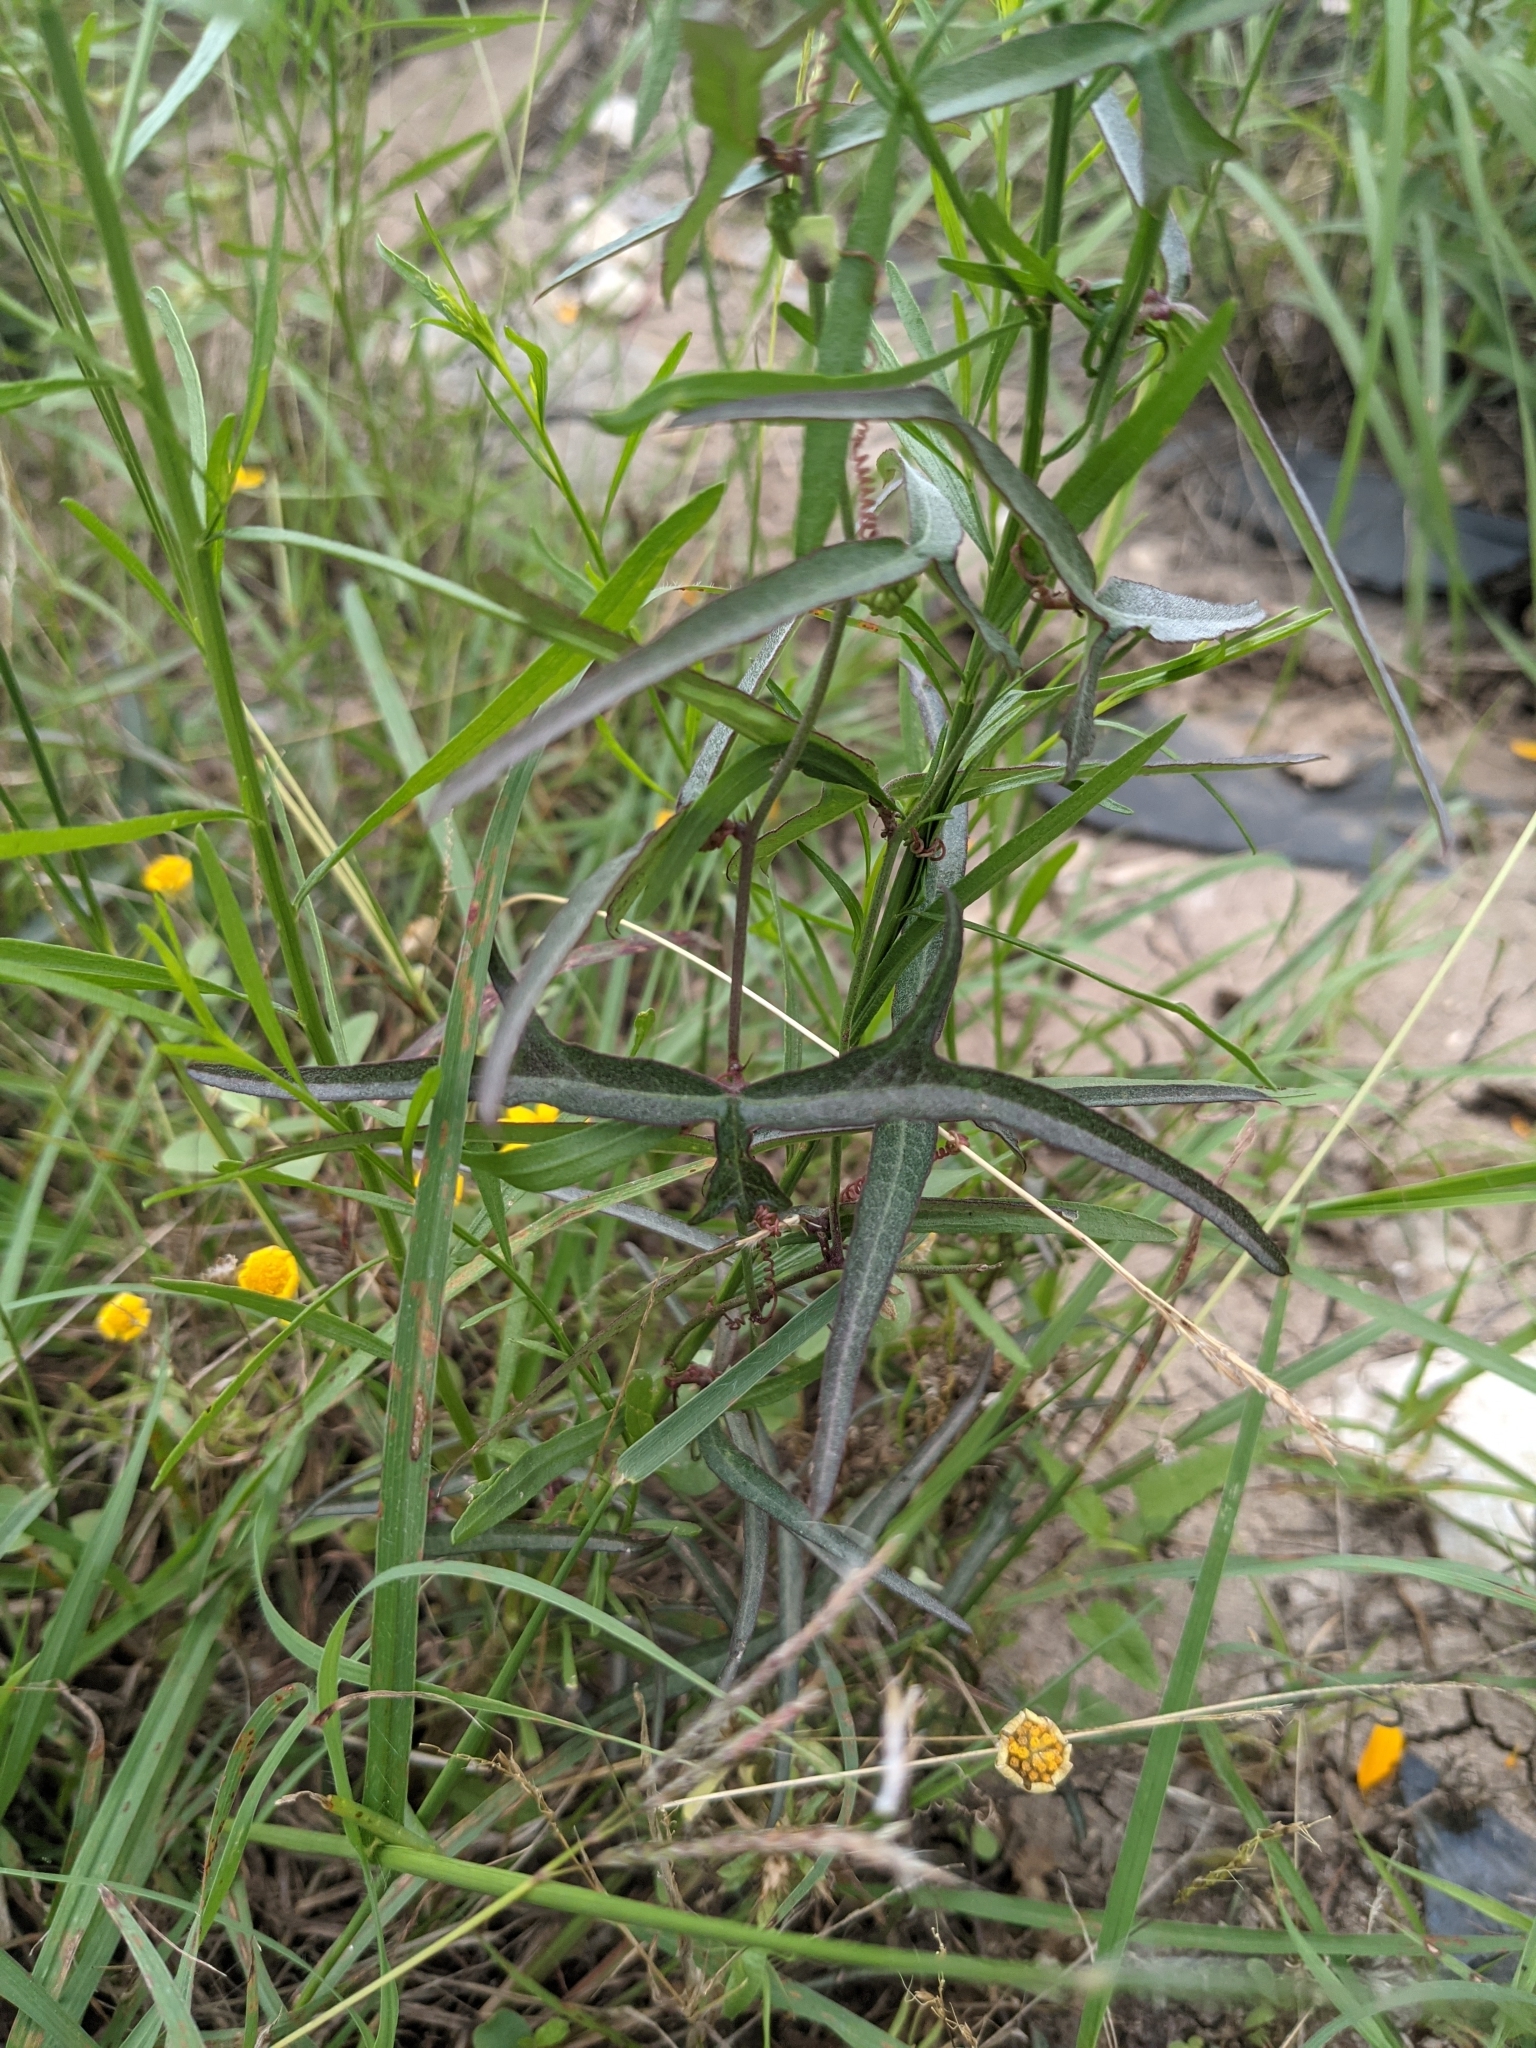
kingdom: Plantae
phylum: Tracheophyta
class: Magnoliopsida
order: Malpighiales
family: Passifloraceae
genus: Passiflora
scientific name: Passiflora tenuiloba
